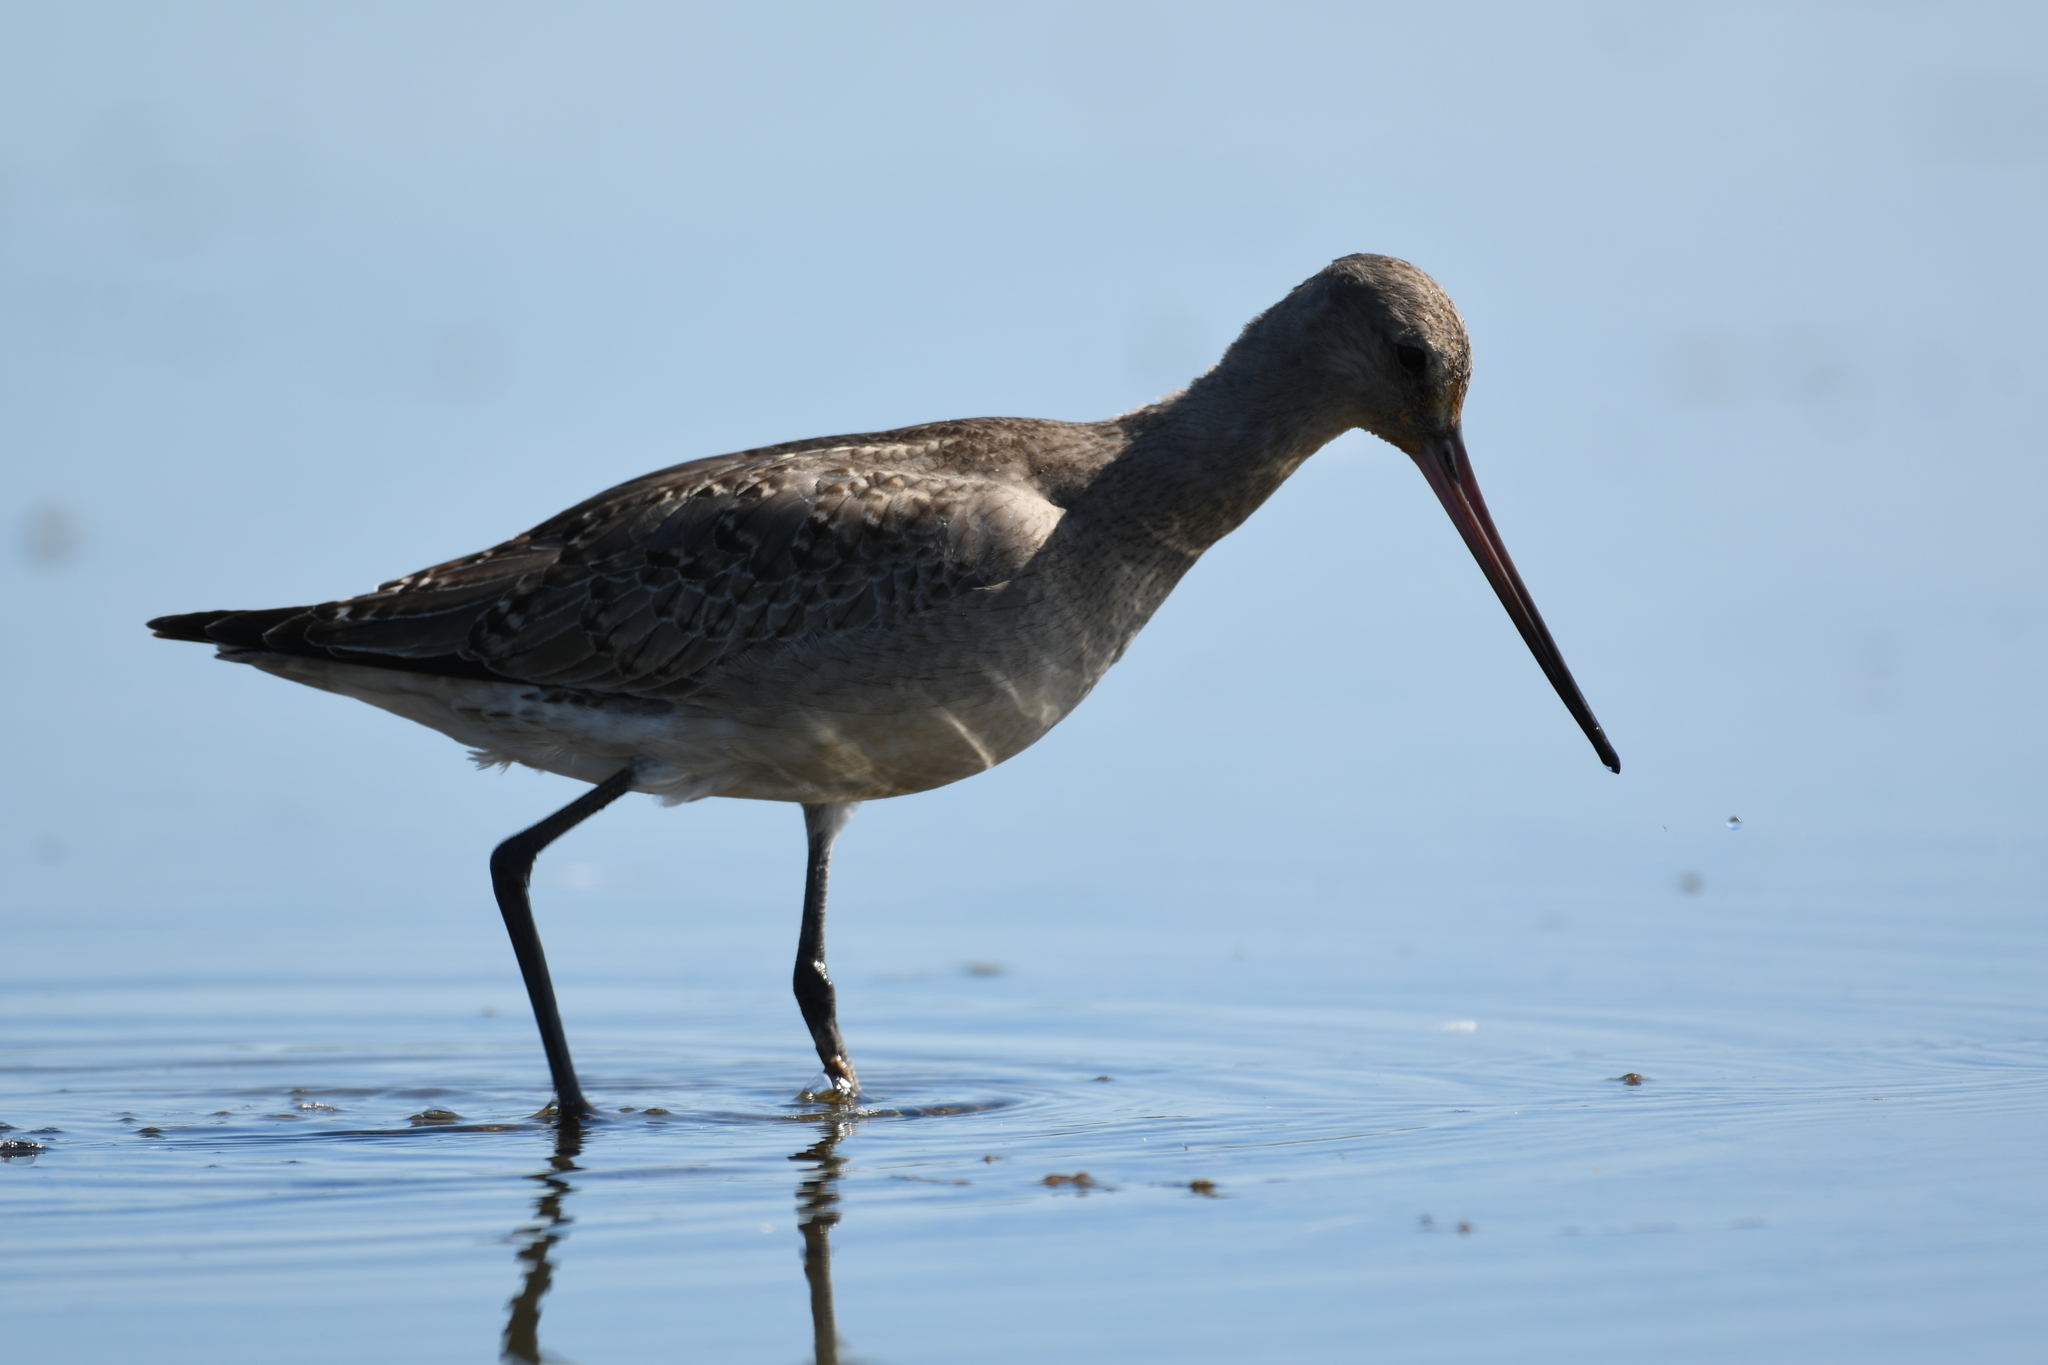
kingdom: Animalia
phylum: Chordata
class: Aves
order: Charadriiformes
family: Scolopacidae
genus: Limosa
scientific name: Limosa haemastica
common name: Hudsonian godwit
